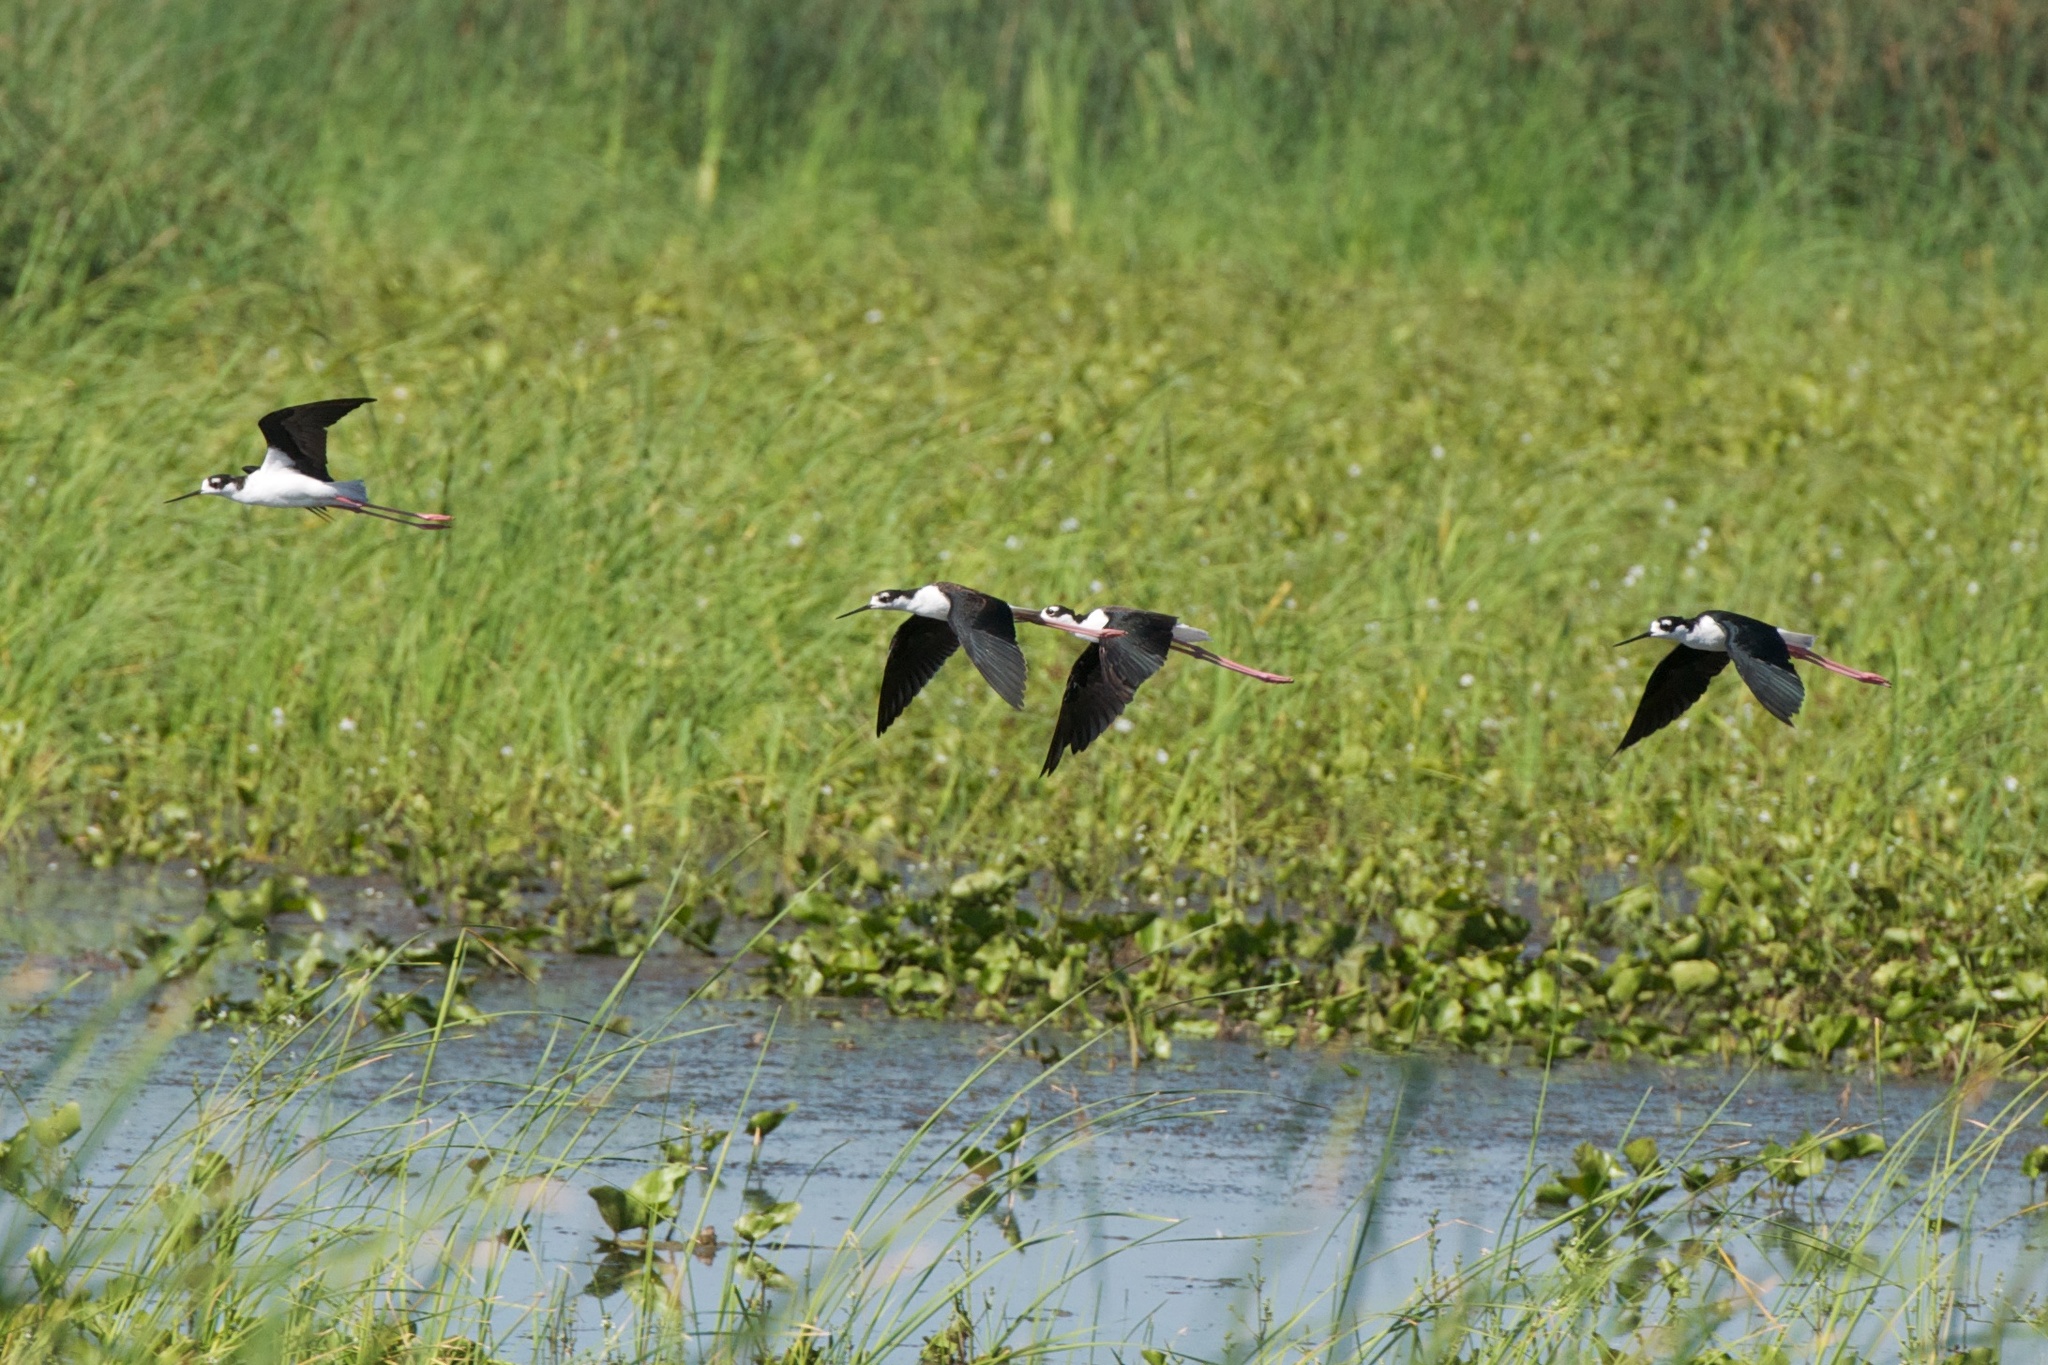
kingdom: Animalia
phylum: Chordata
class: Aves
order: Charadriiformes
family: Recurvirostridae
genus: Himantopus
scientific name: Himantopus mexicanus
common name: Black-necked stilt
